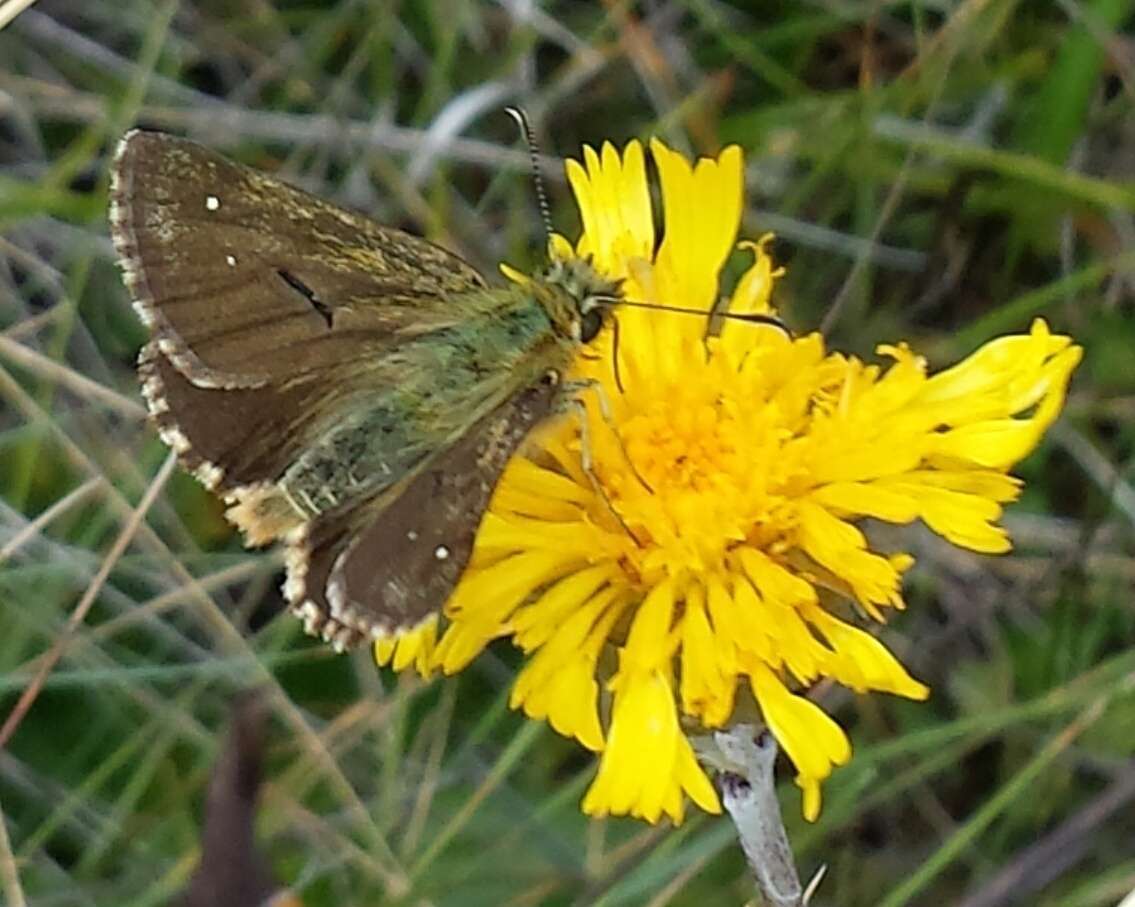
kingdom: Animalia
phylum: Arthropoda
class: Insecta
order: Lepidoptera
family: Hesperiidae
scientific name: Hesperiidae
